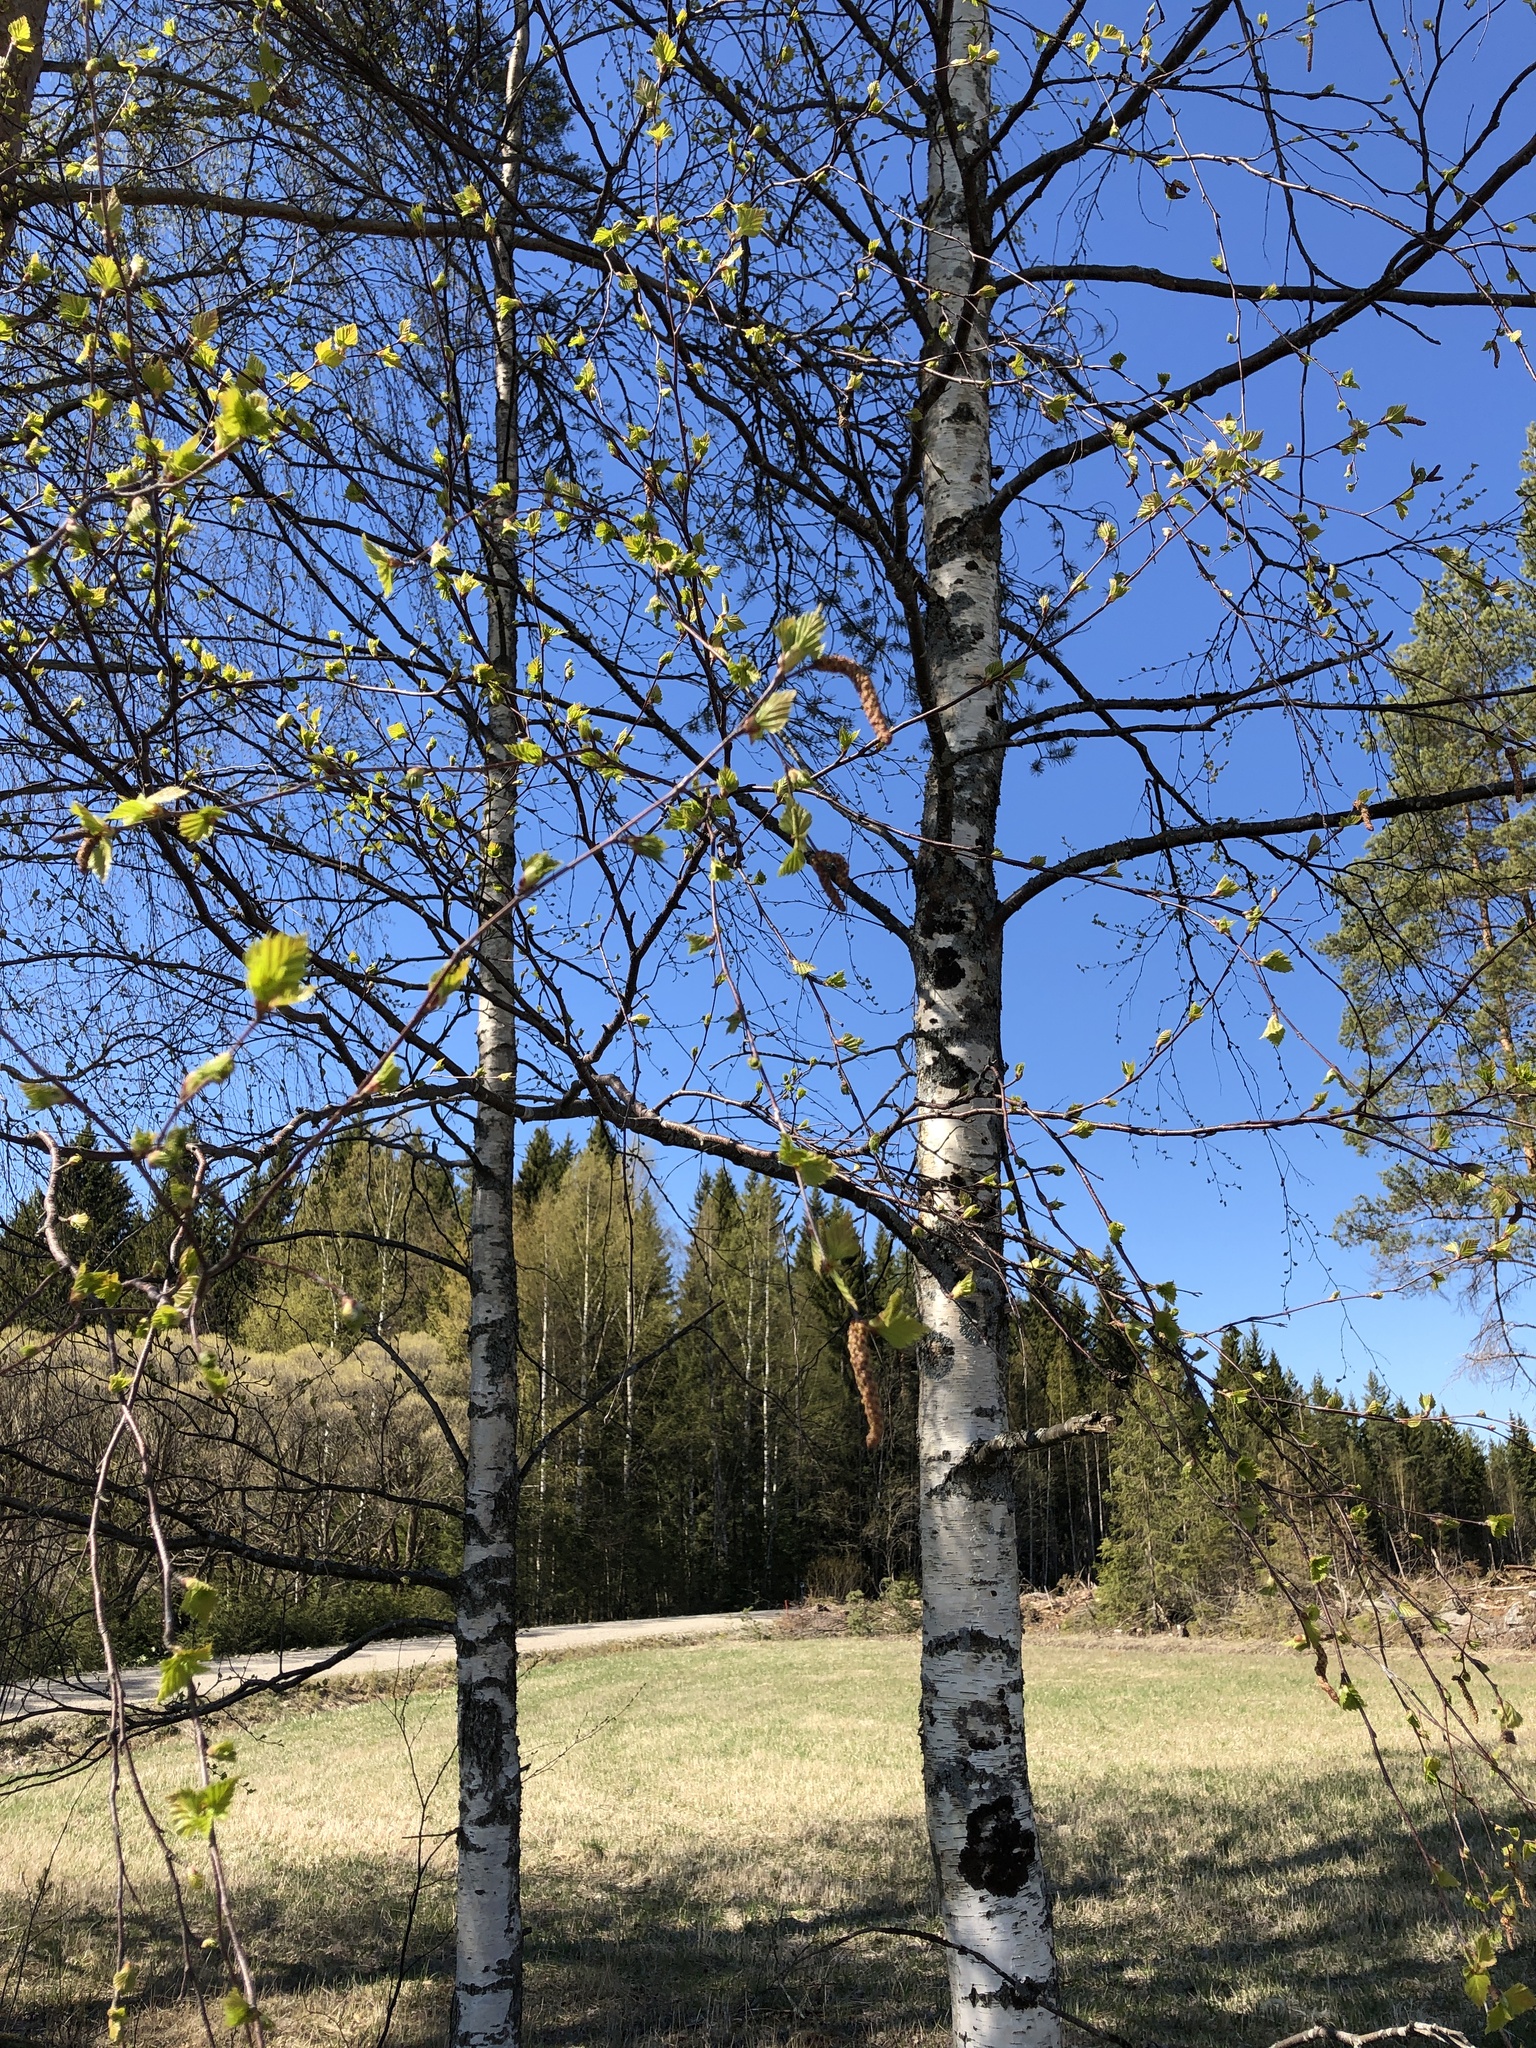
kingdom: Plantae
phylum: Tracheophyta
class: Magnoliopsida
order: Fagales
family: Betulaceae
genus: Betula
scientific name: Betula pendula
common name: Silver birch
